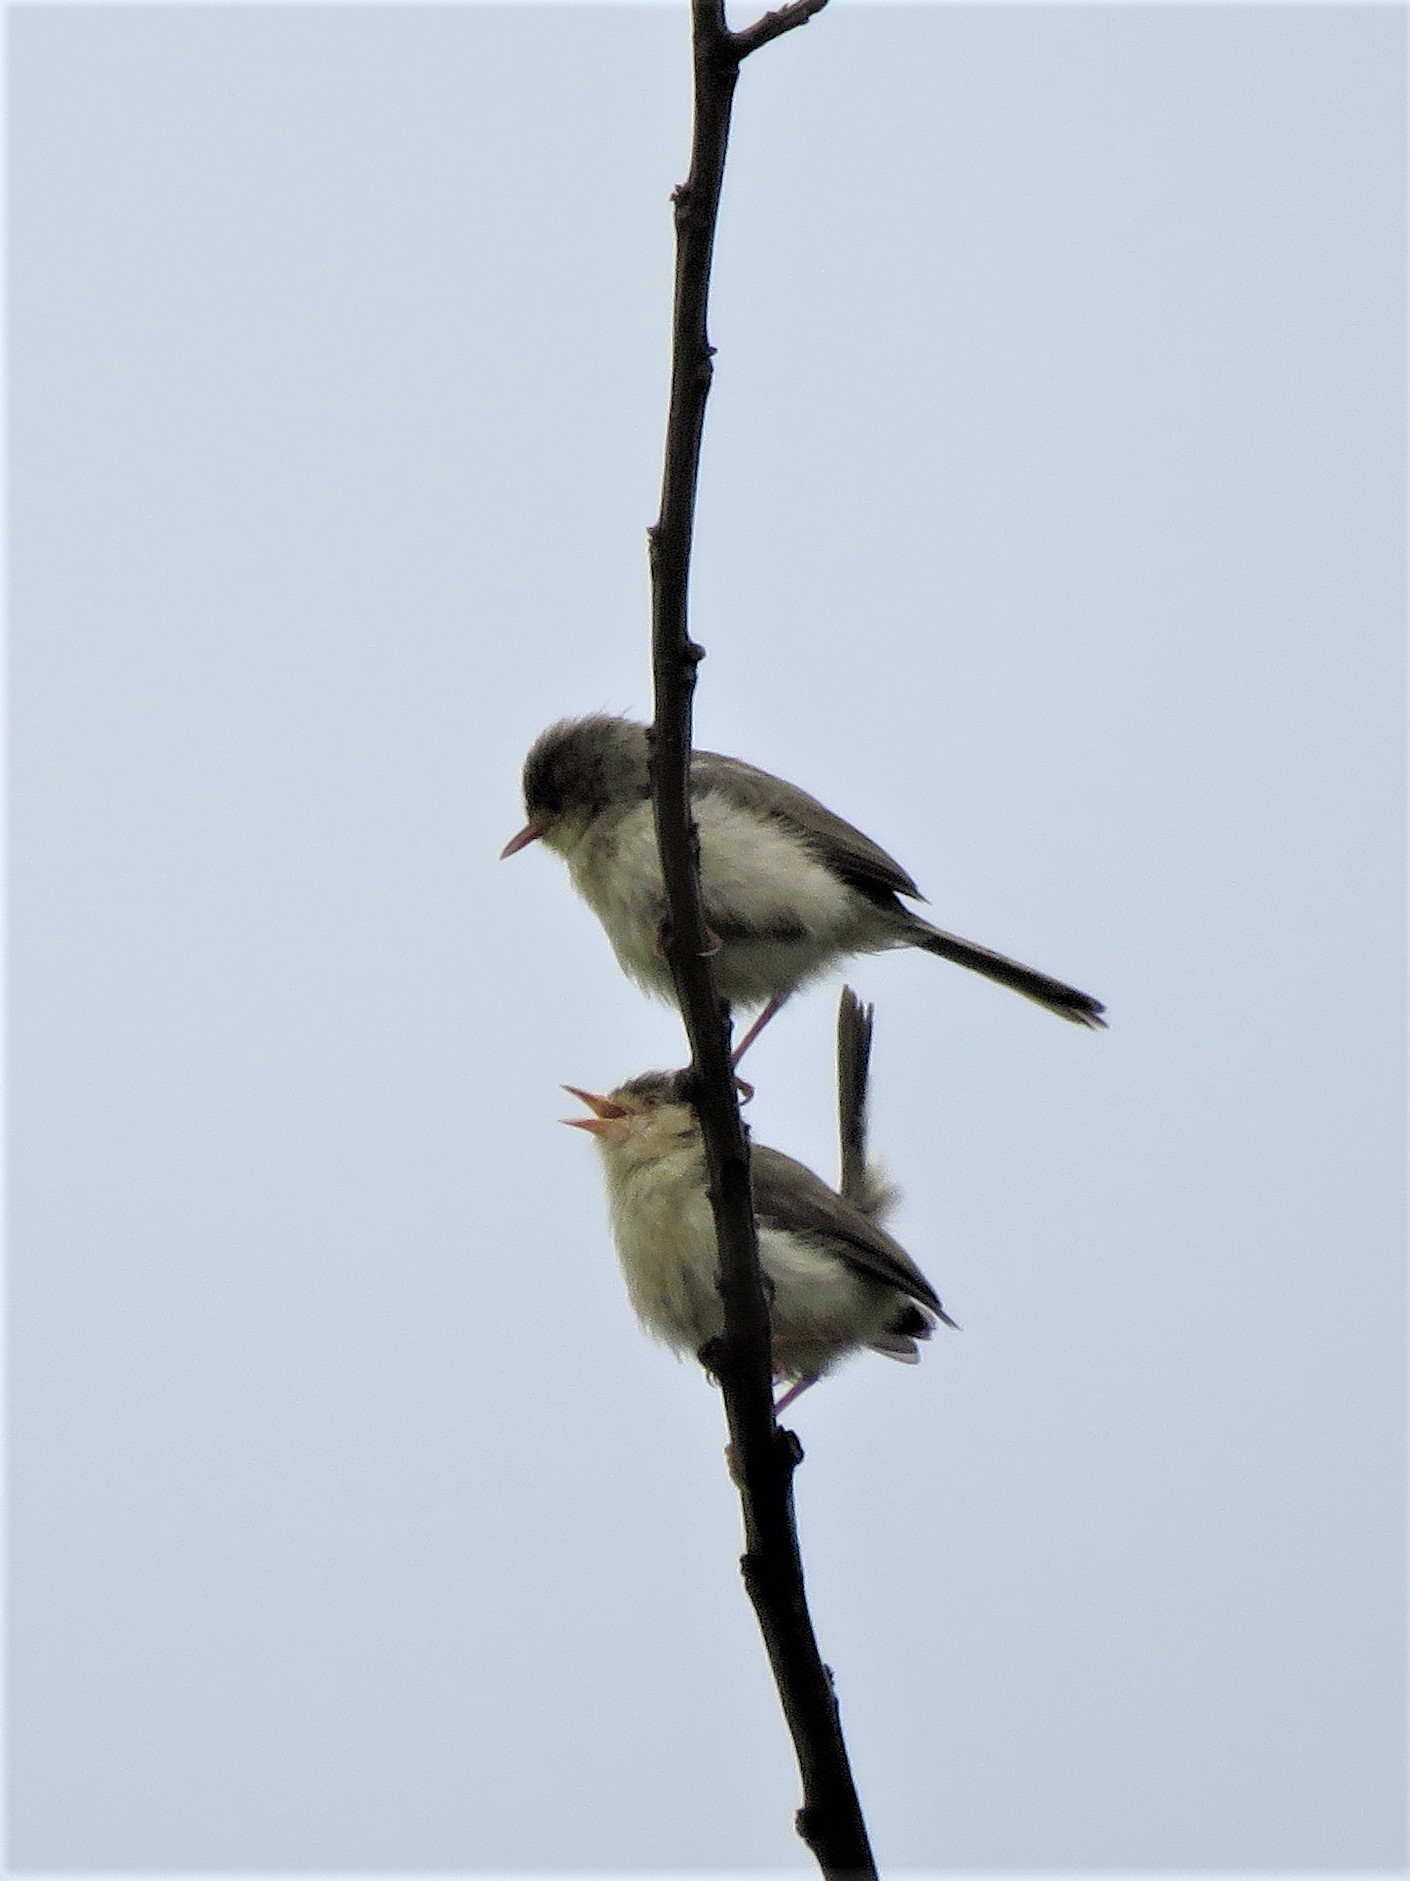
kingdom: Animalia
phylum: Chordata
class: Aves
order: Passeriformes
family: Cisticolidae
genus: Phyllolais
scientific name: Phyllolais pulchella
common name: Buff-bellied warbler
